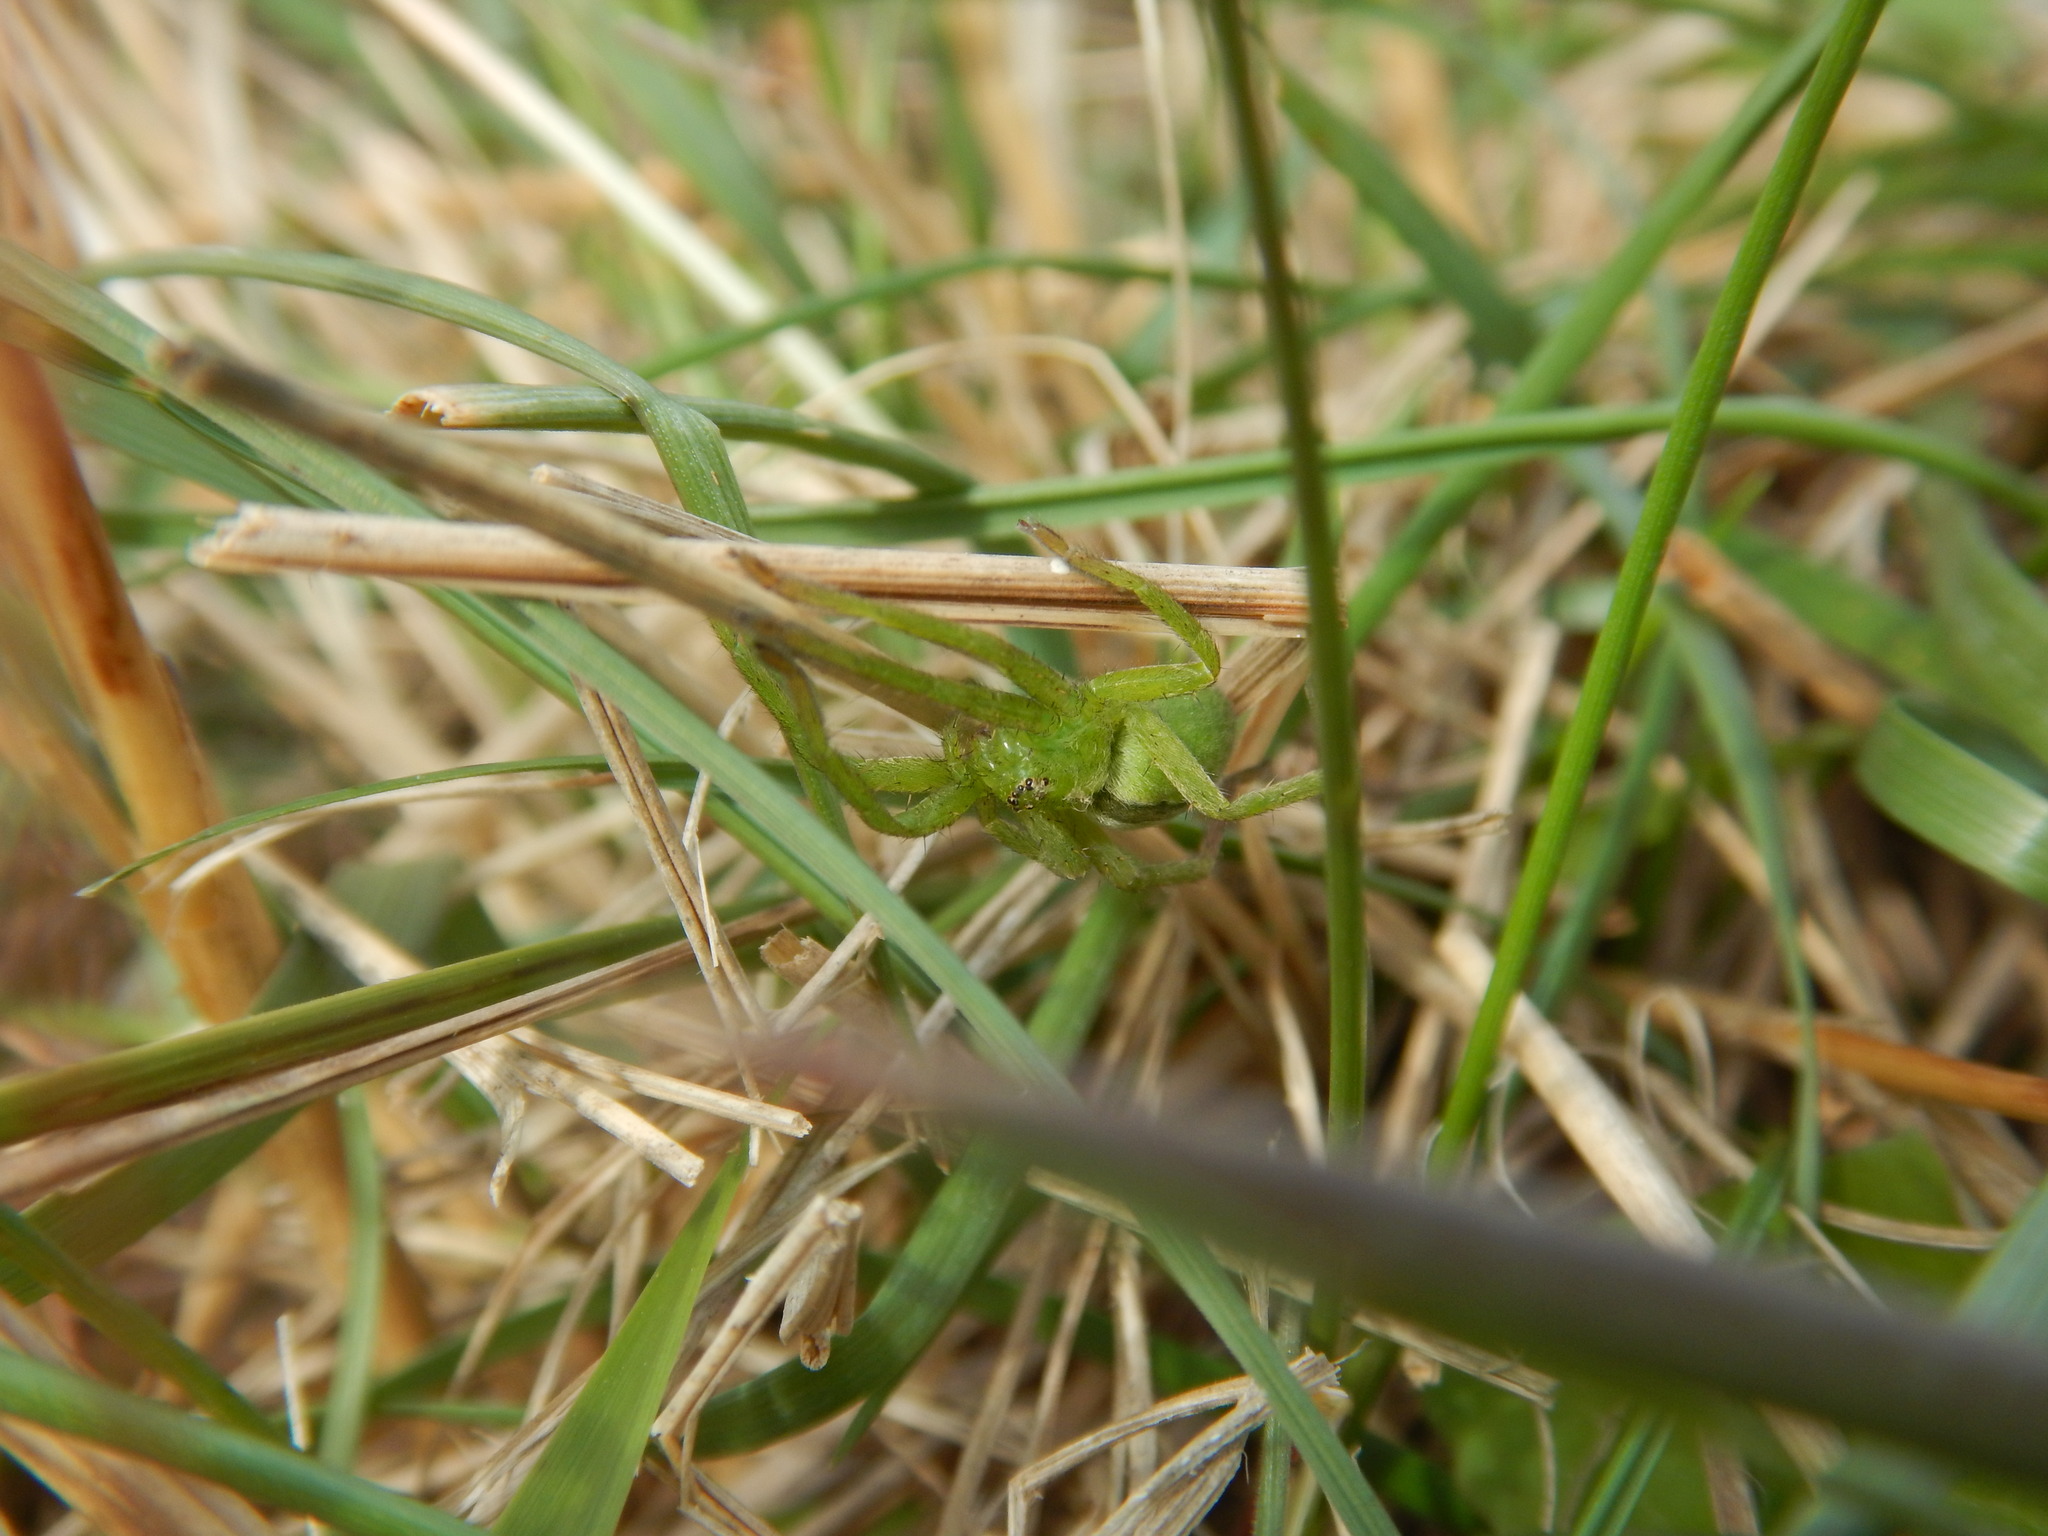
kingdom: Animalia
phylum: Arthropoda
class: Arachnida
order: Araneae
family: Sparassidae
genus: Micrommata
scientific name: Micrommata ligurina
